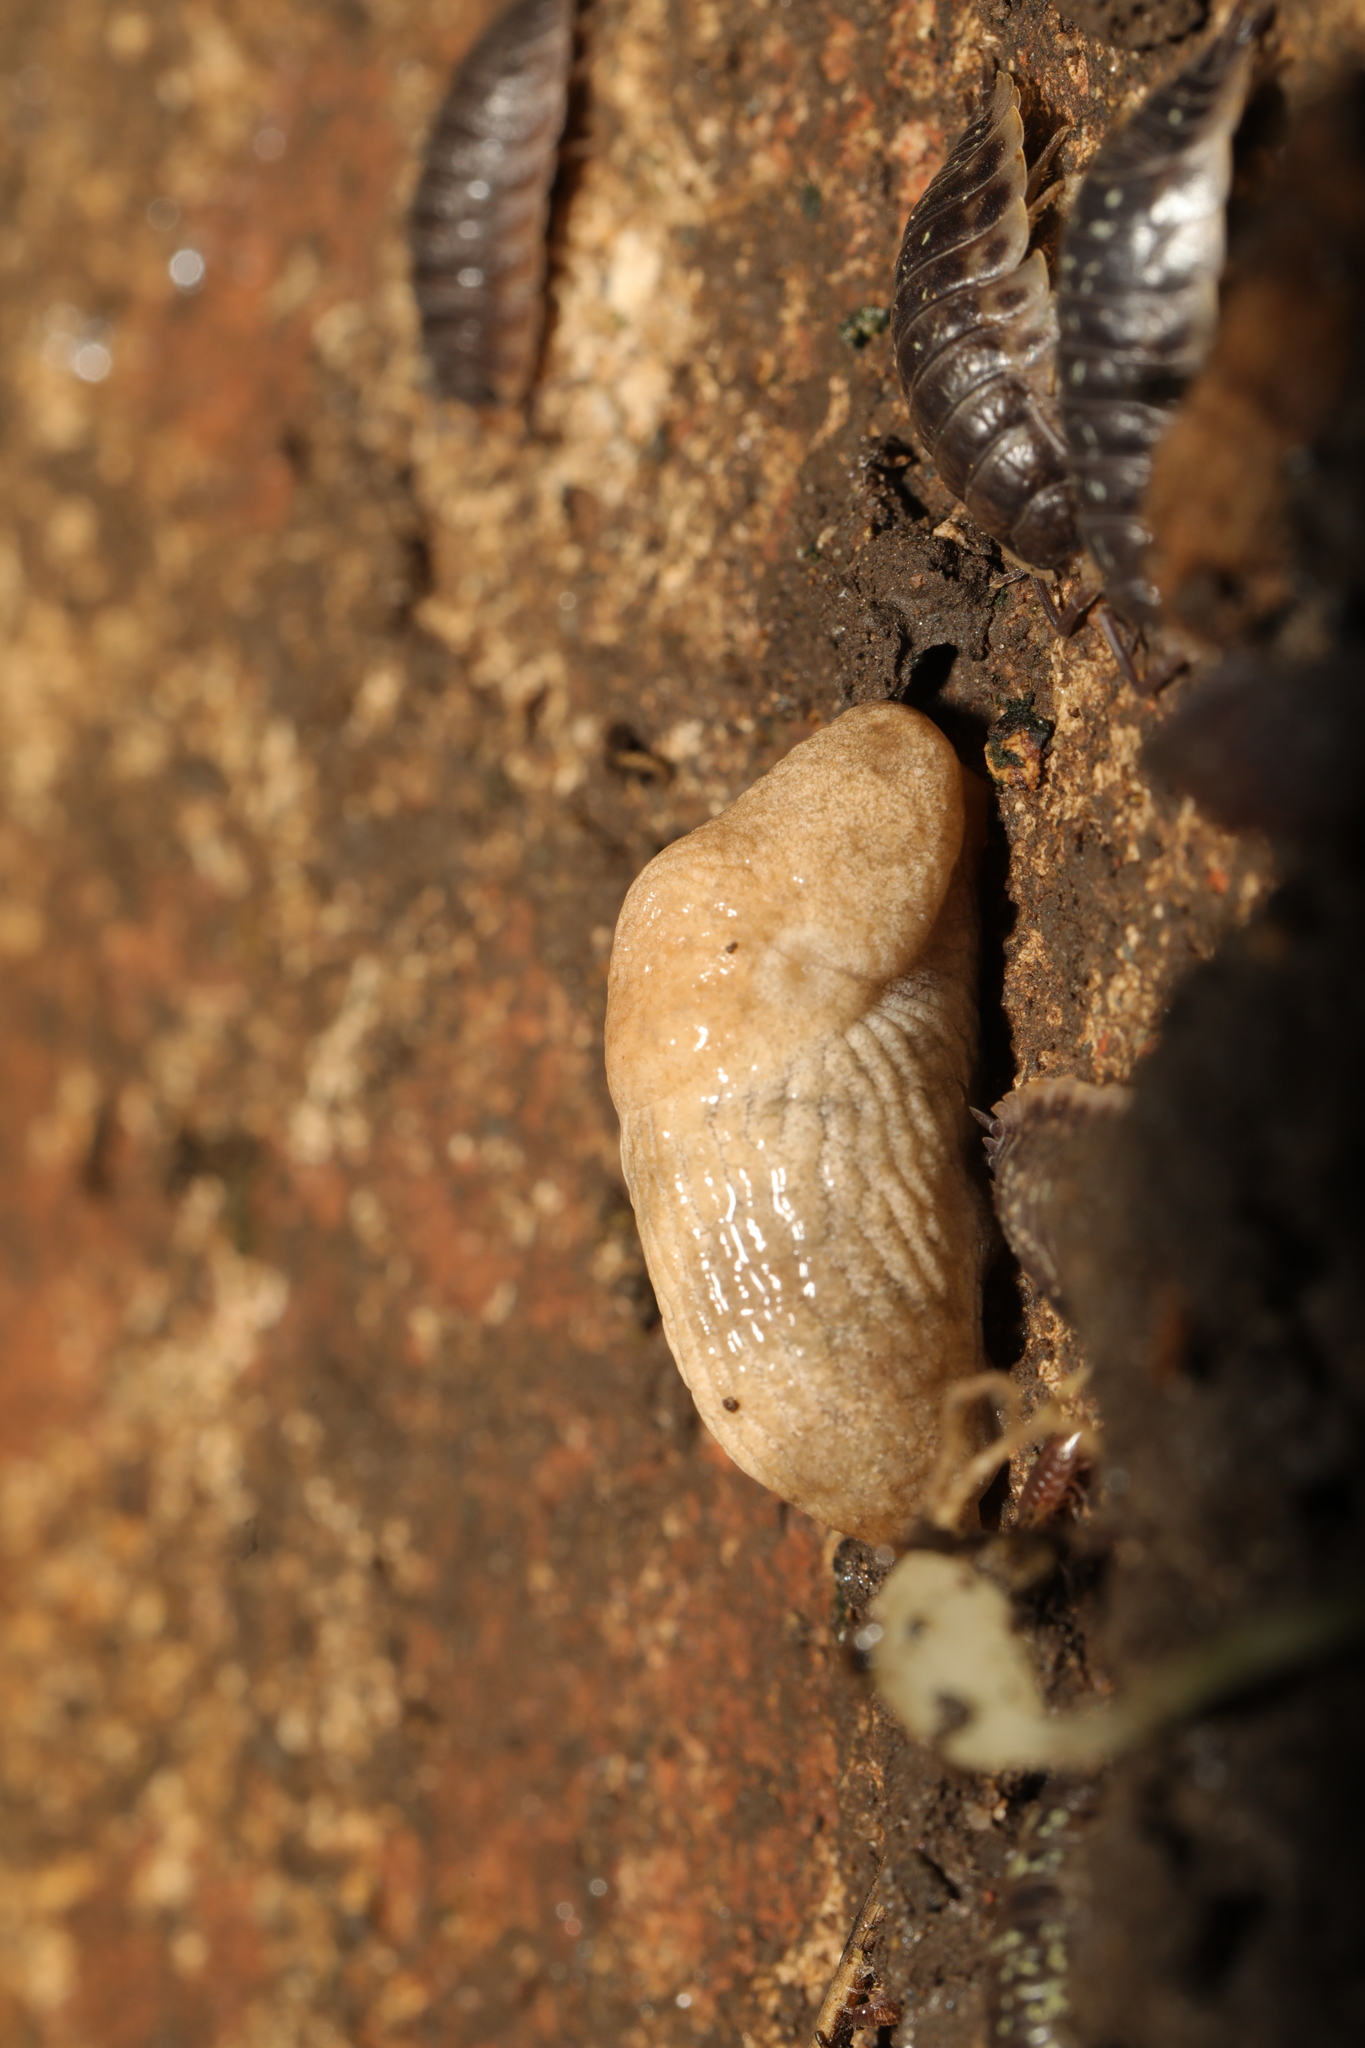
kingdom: Animalia
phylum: Mollusca
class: Gastropoda
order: Stylommatophora
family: Agriolimacidae
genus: Deroceras
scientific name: Deroceras reticulatum
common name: Gray field slug
